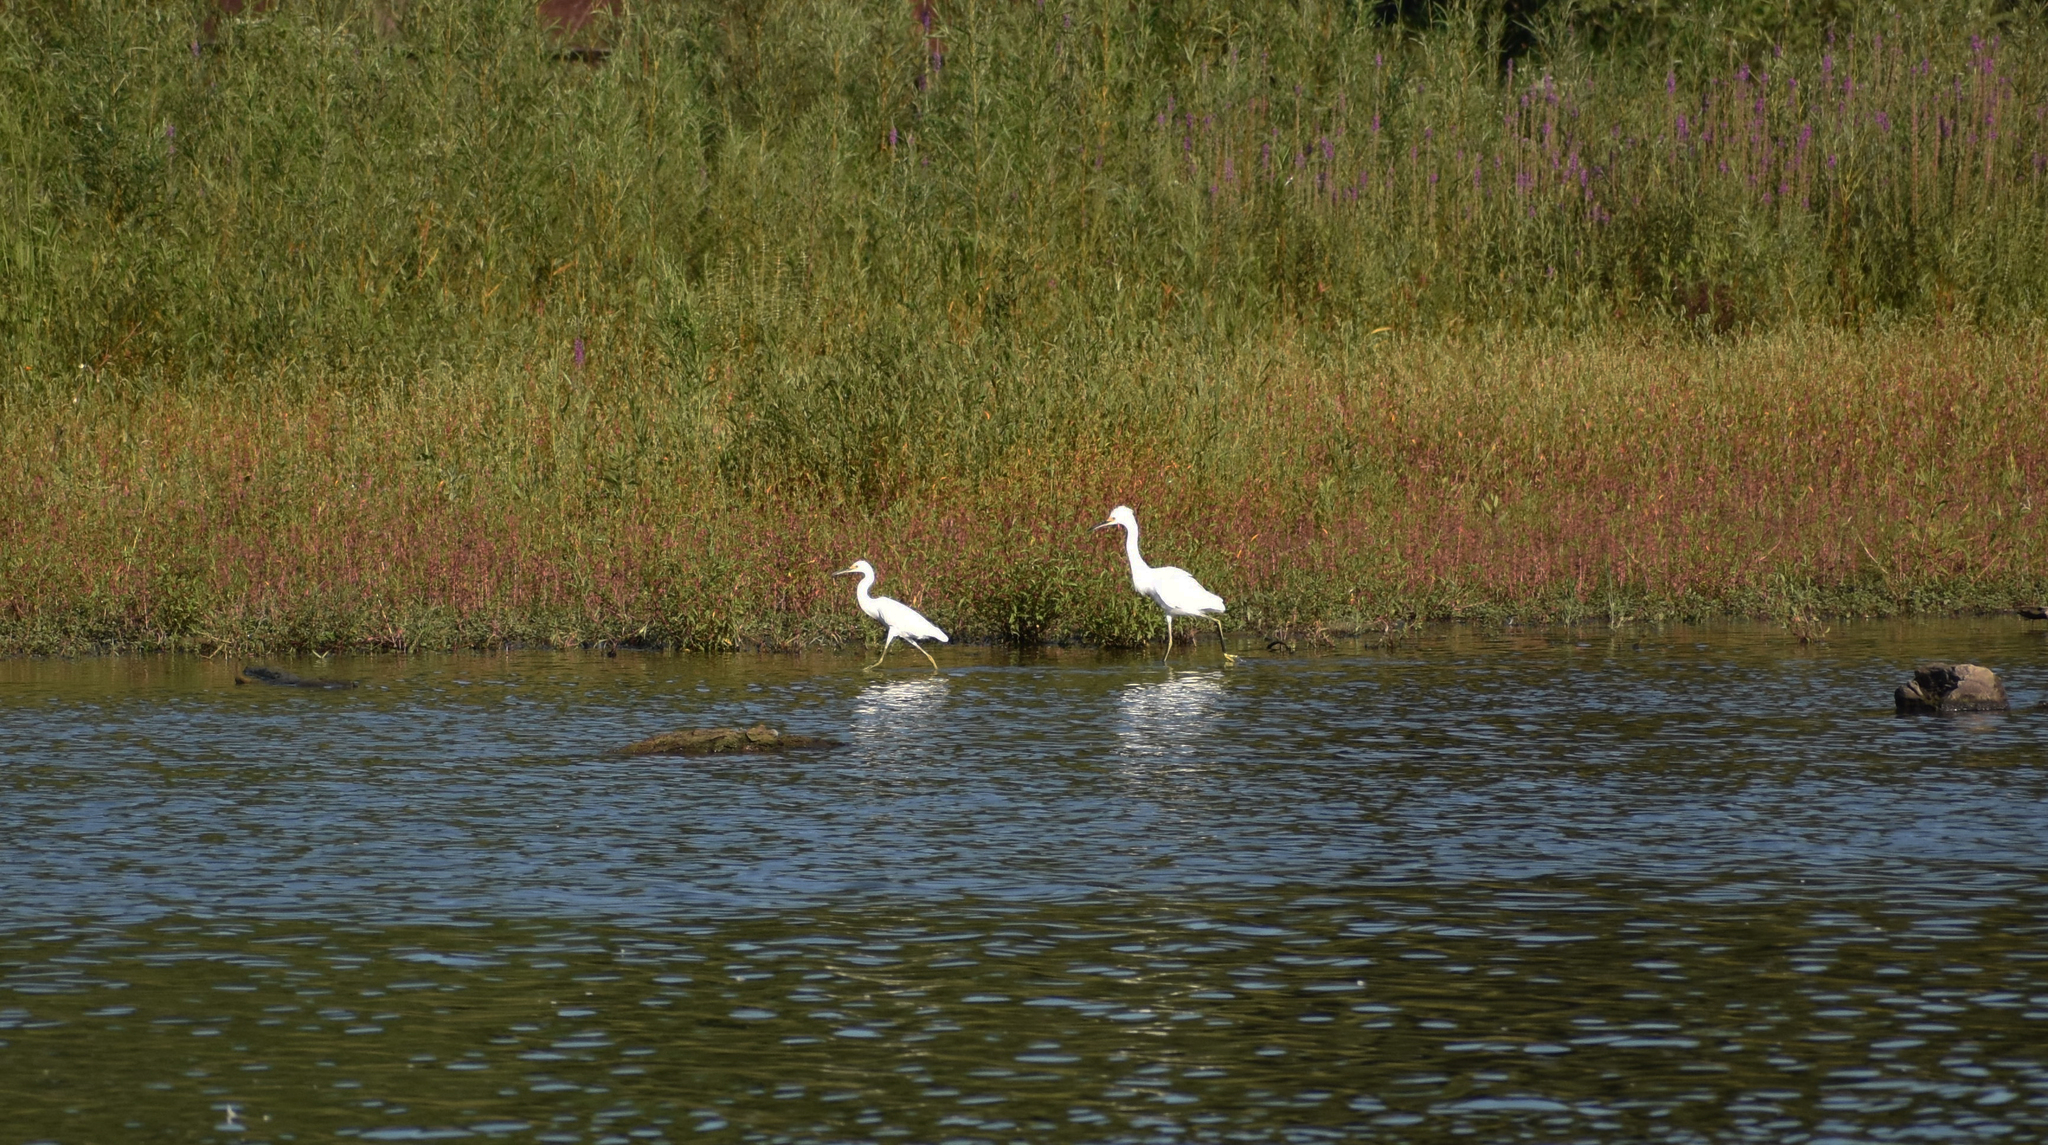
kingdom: Animalia
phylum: Chordata
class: Aves
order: Pelecaniformes
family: Ardeidae
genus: Egretta
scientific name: Egretta thula
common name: Snowy egret
